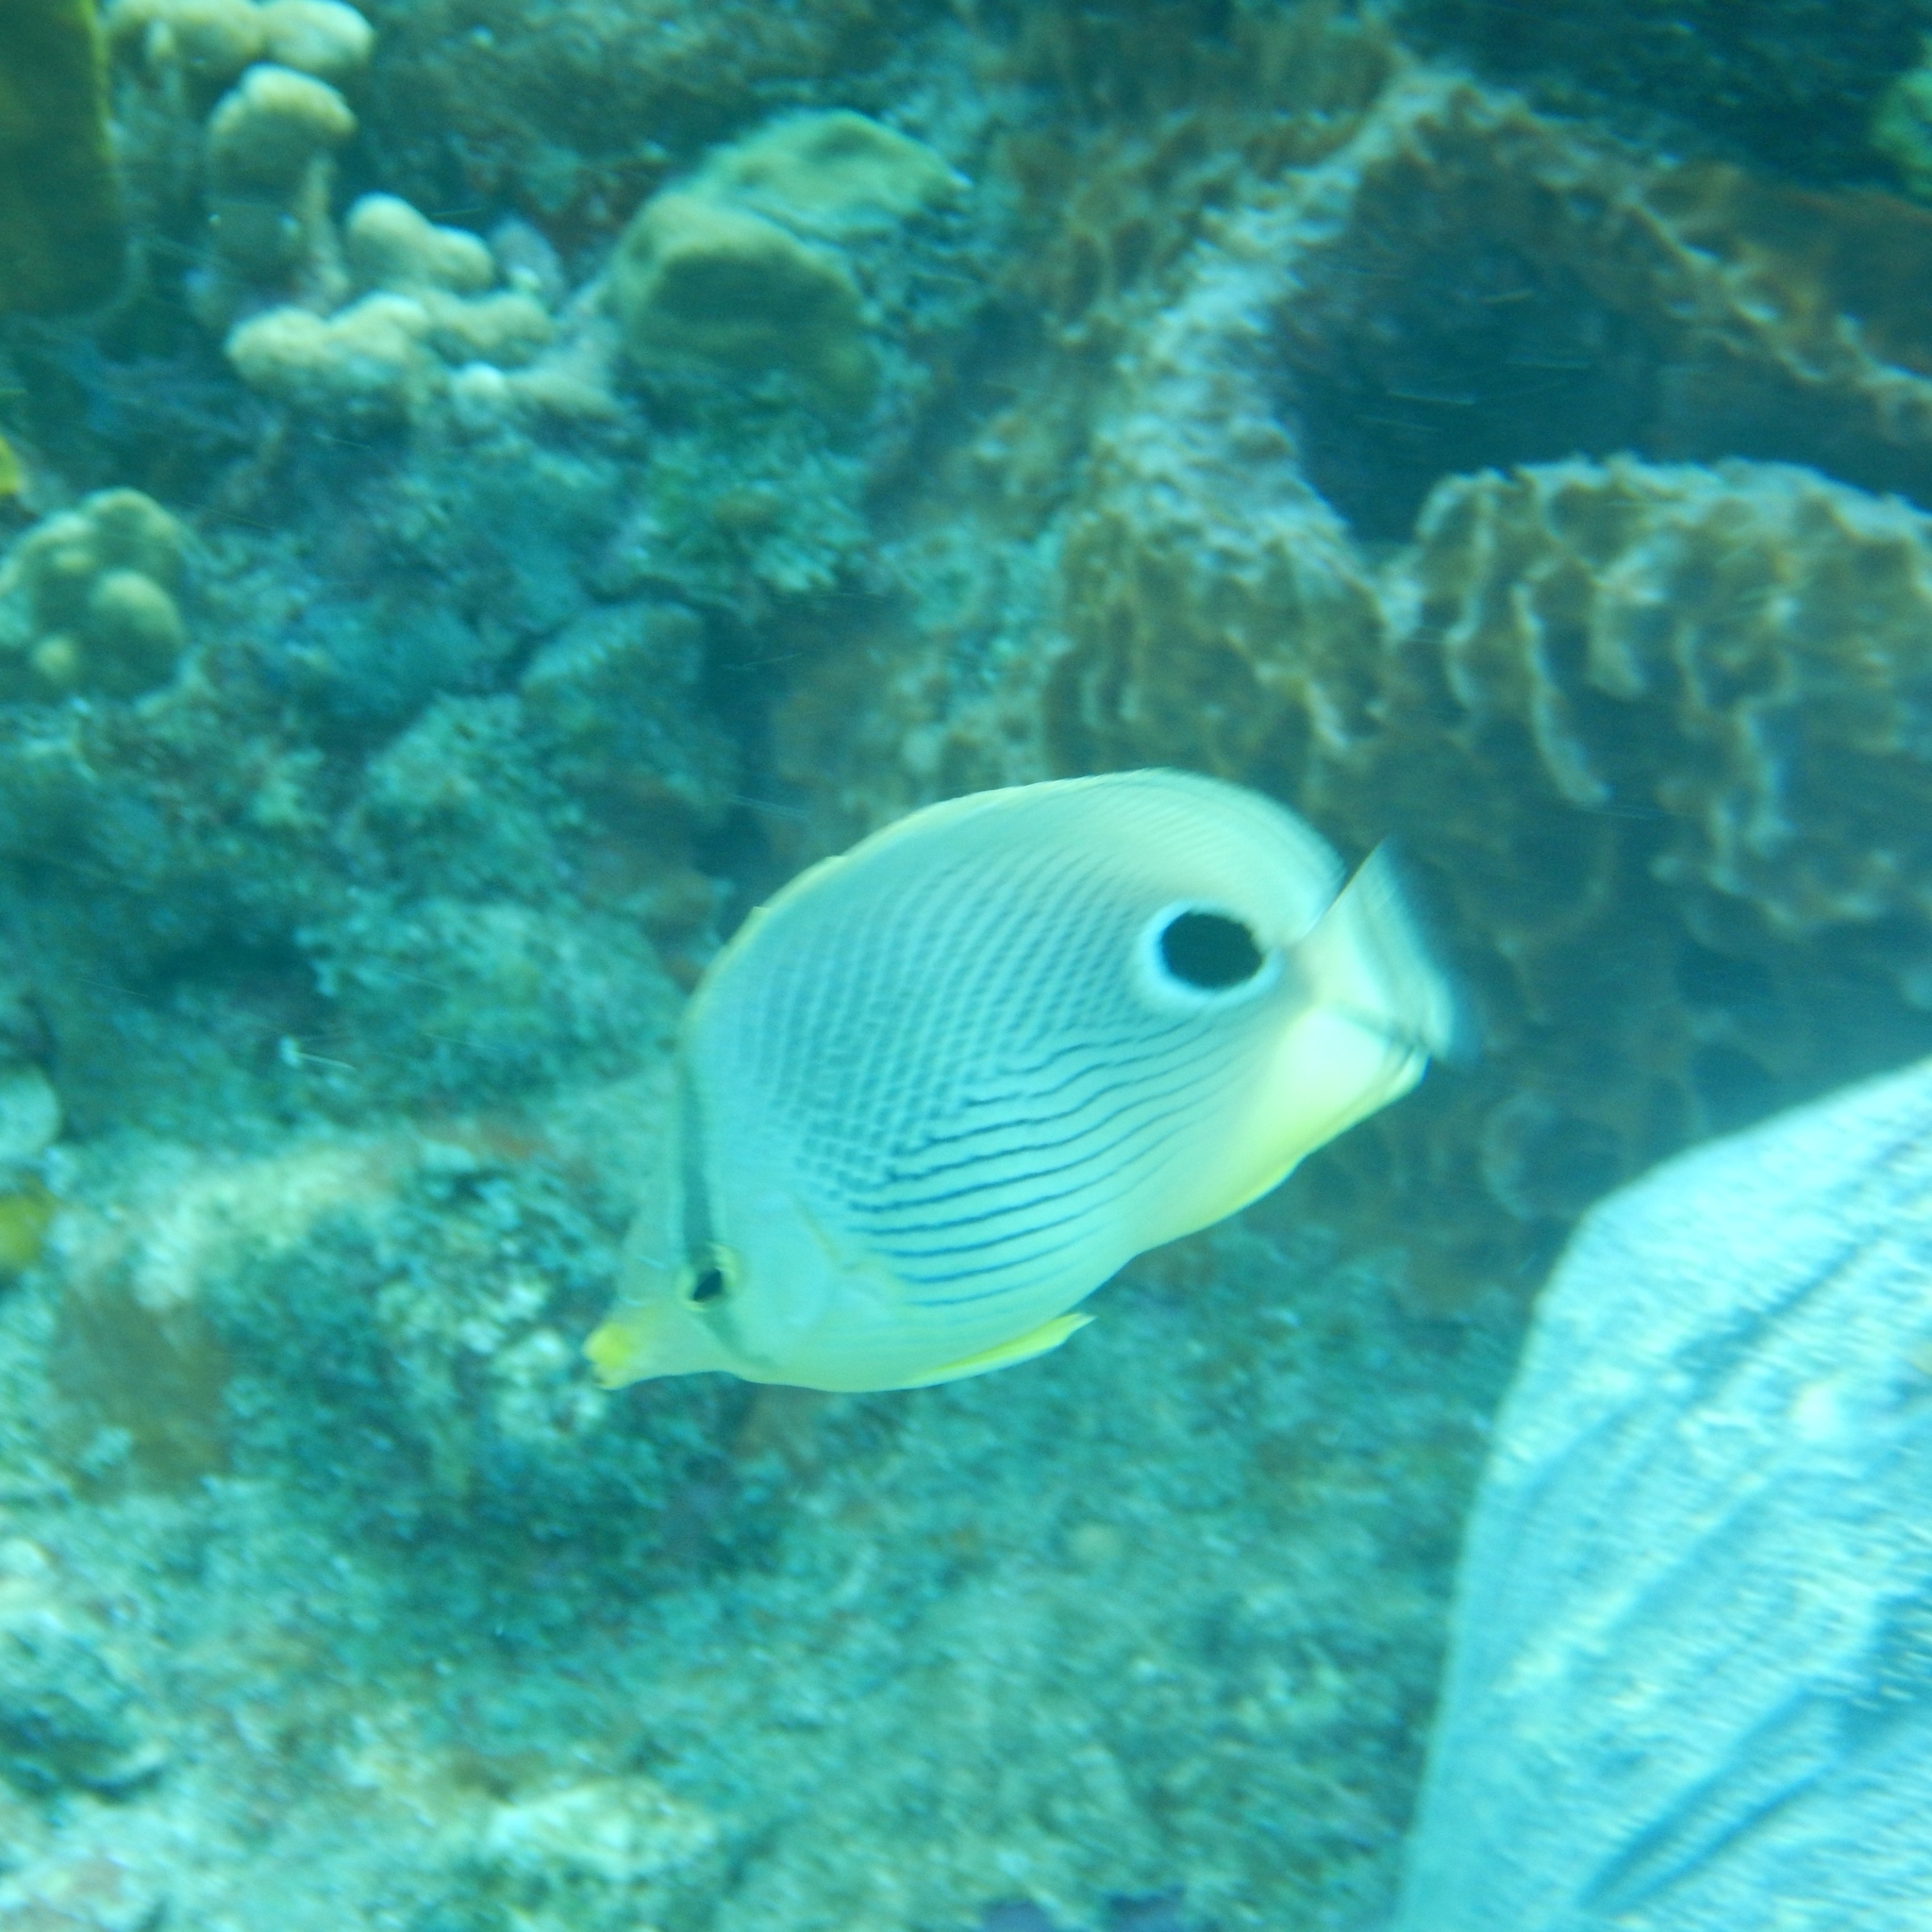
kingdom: Animalia
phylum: Chordata
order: Perciformes
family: Chaetodontidae
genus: Chaetodon
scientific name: Chaetodon capistratus
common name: Kete
